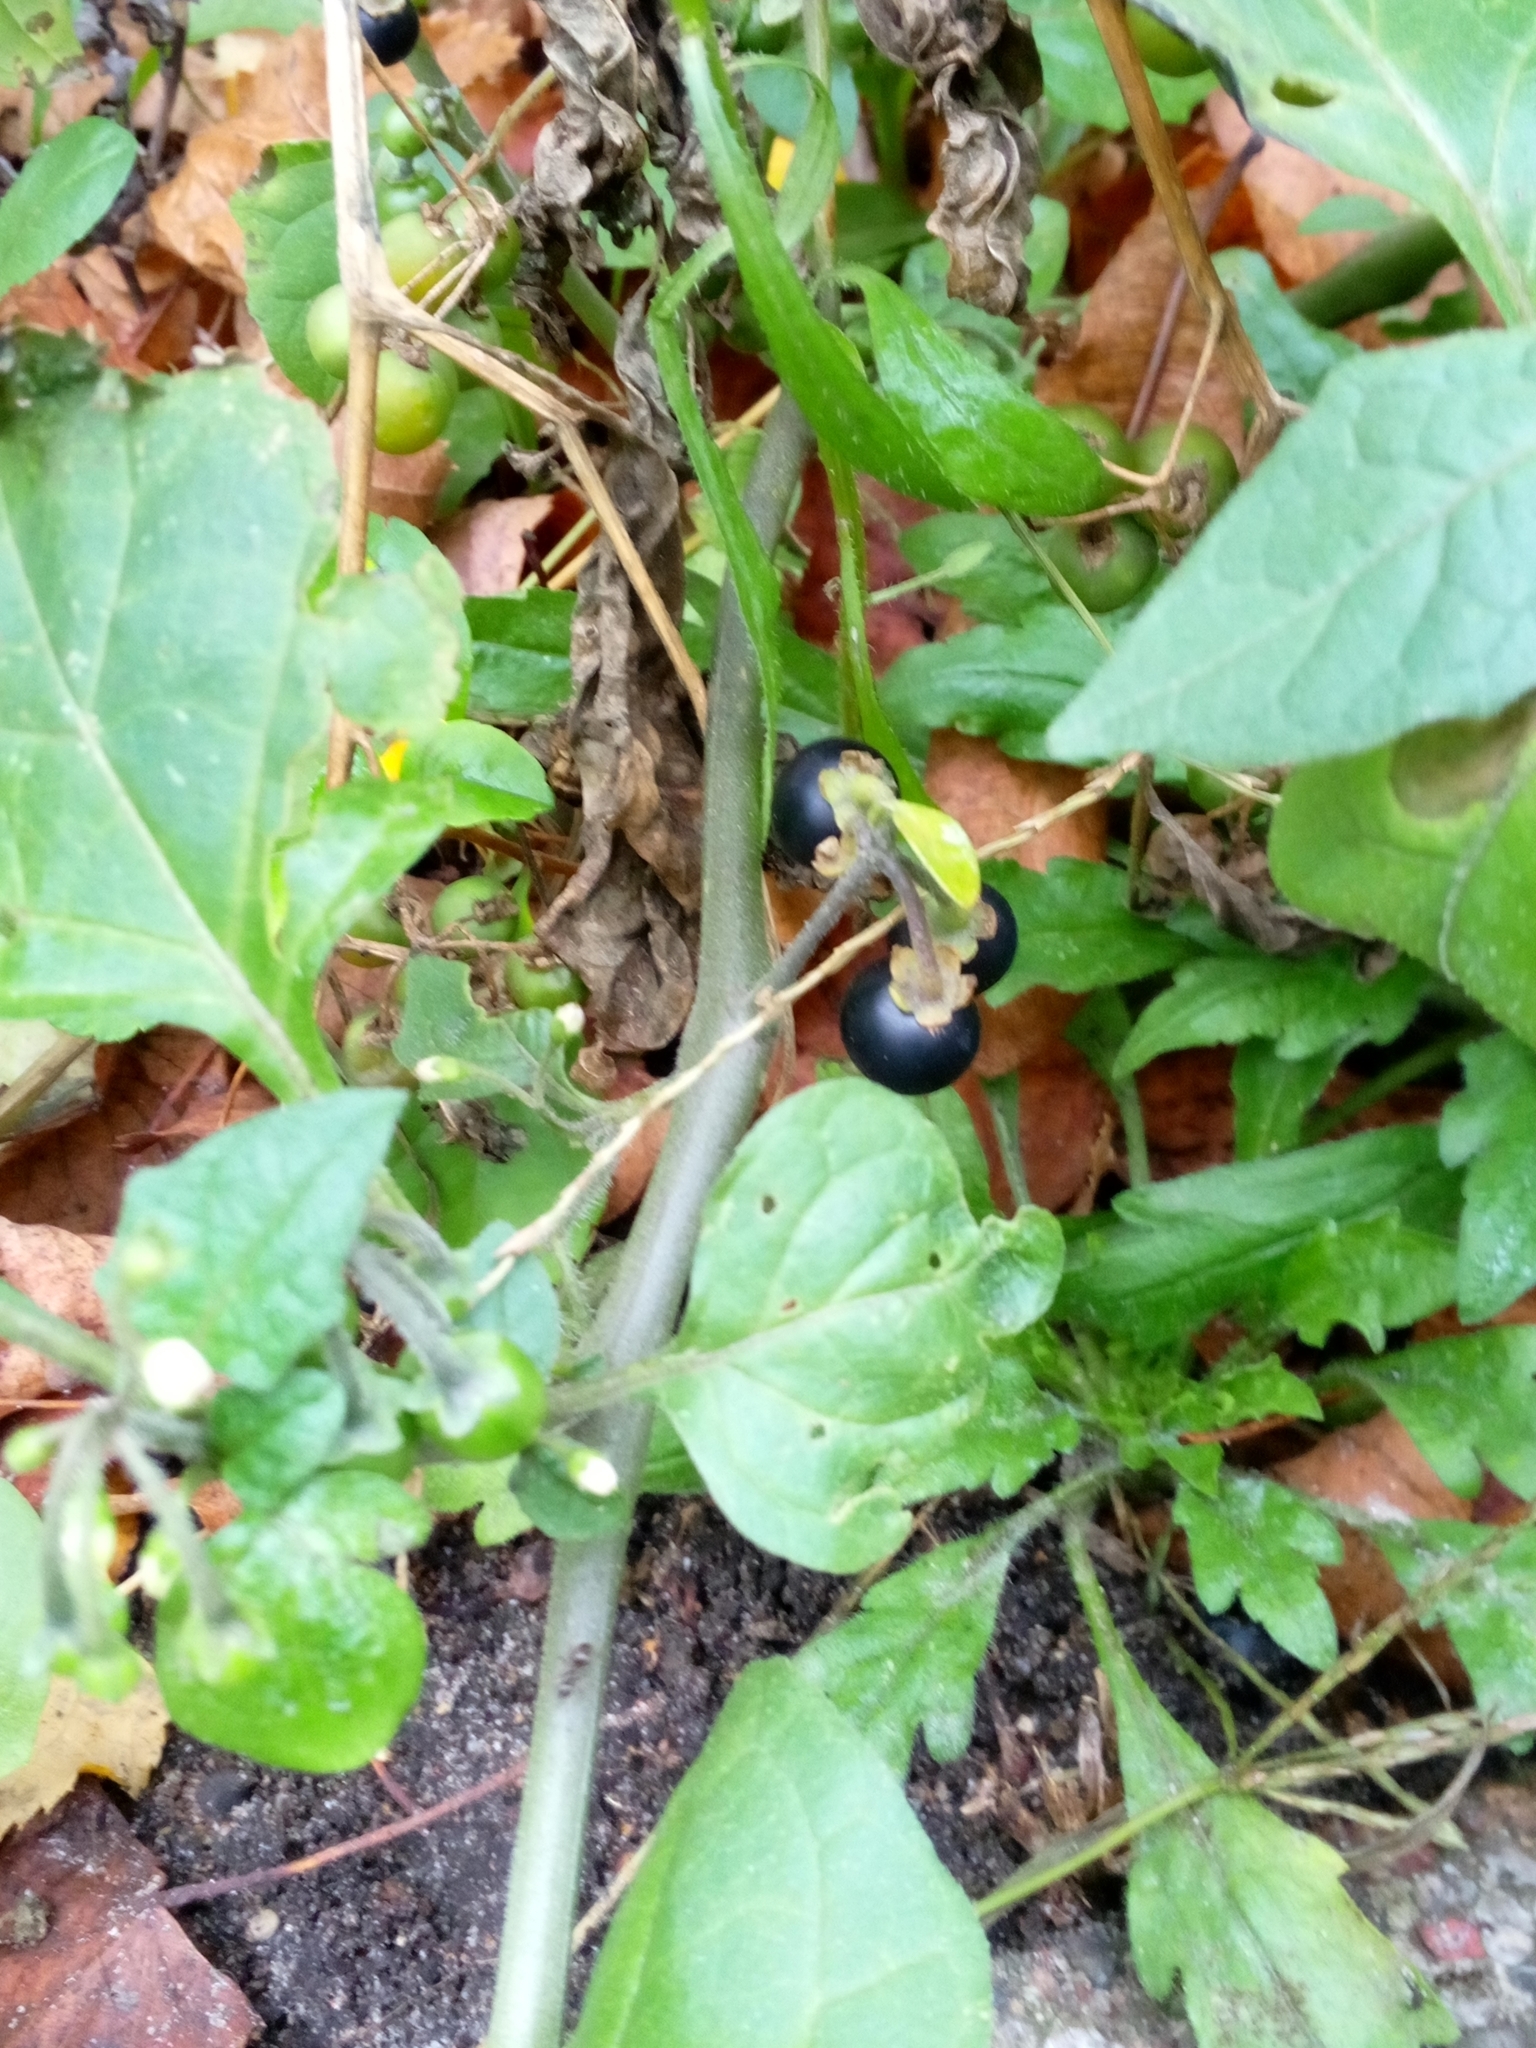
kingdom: Plantae
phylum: Tracheophyta
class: Magnoliopsida
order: Solanales
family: Solanaceae
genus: Solanum
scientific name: Solanum nigrum
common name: Black nightshade
